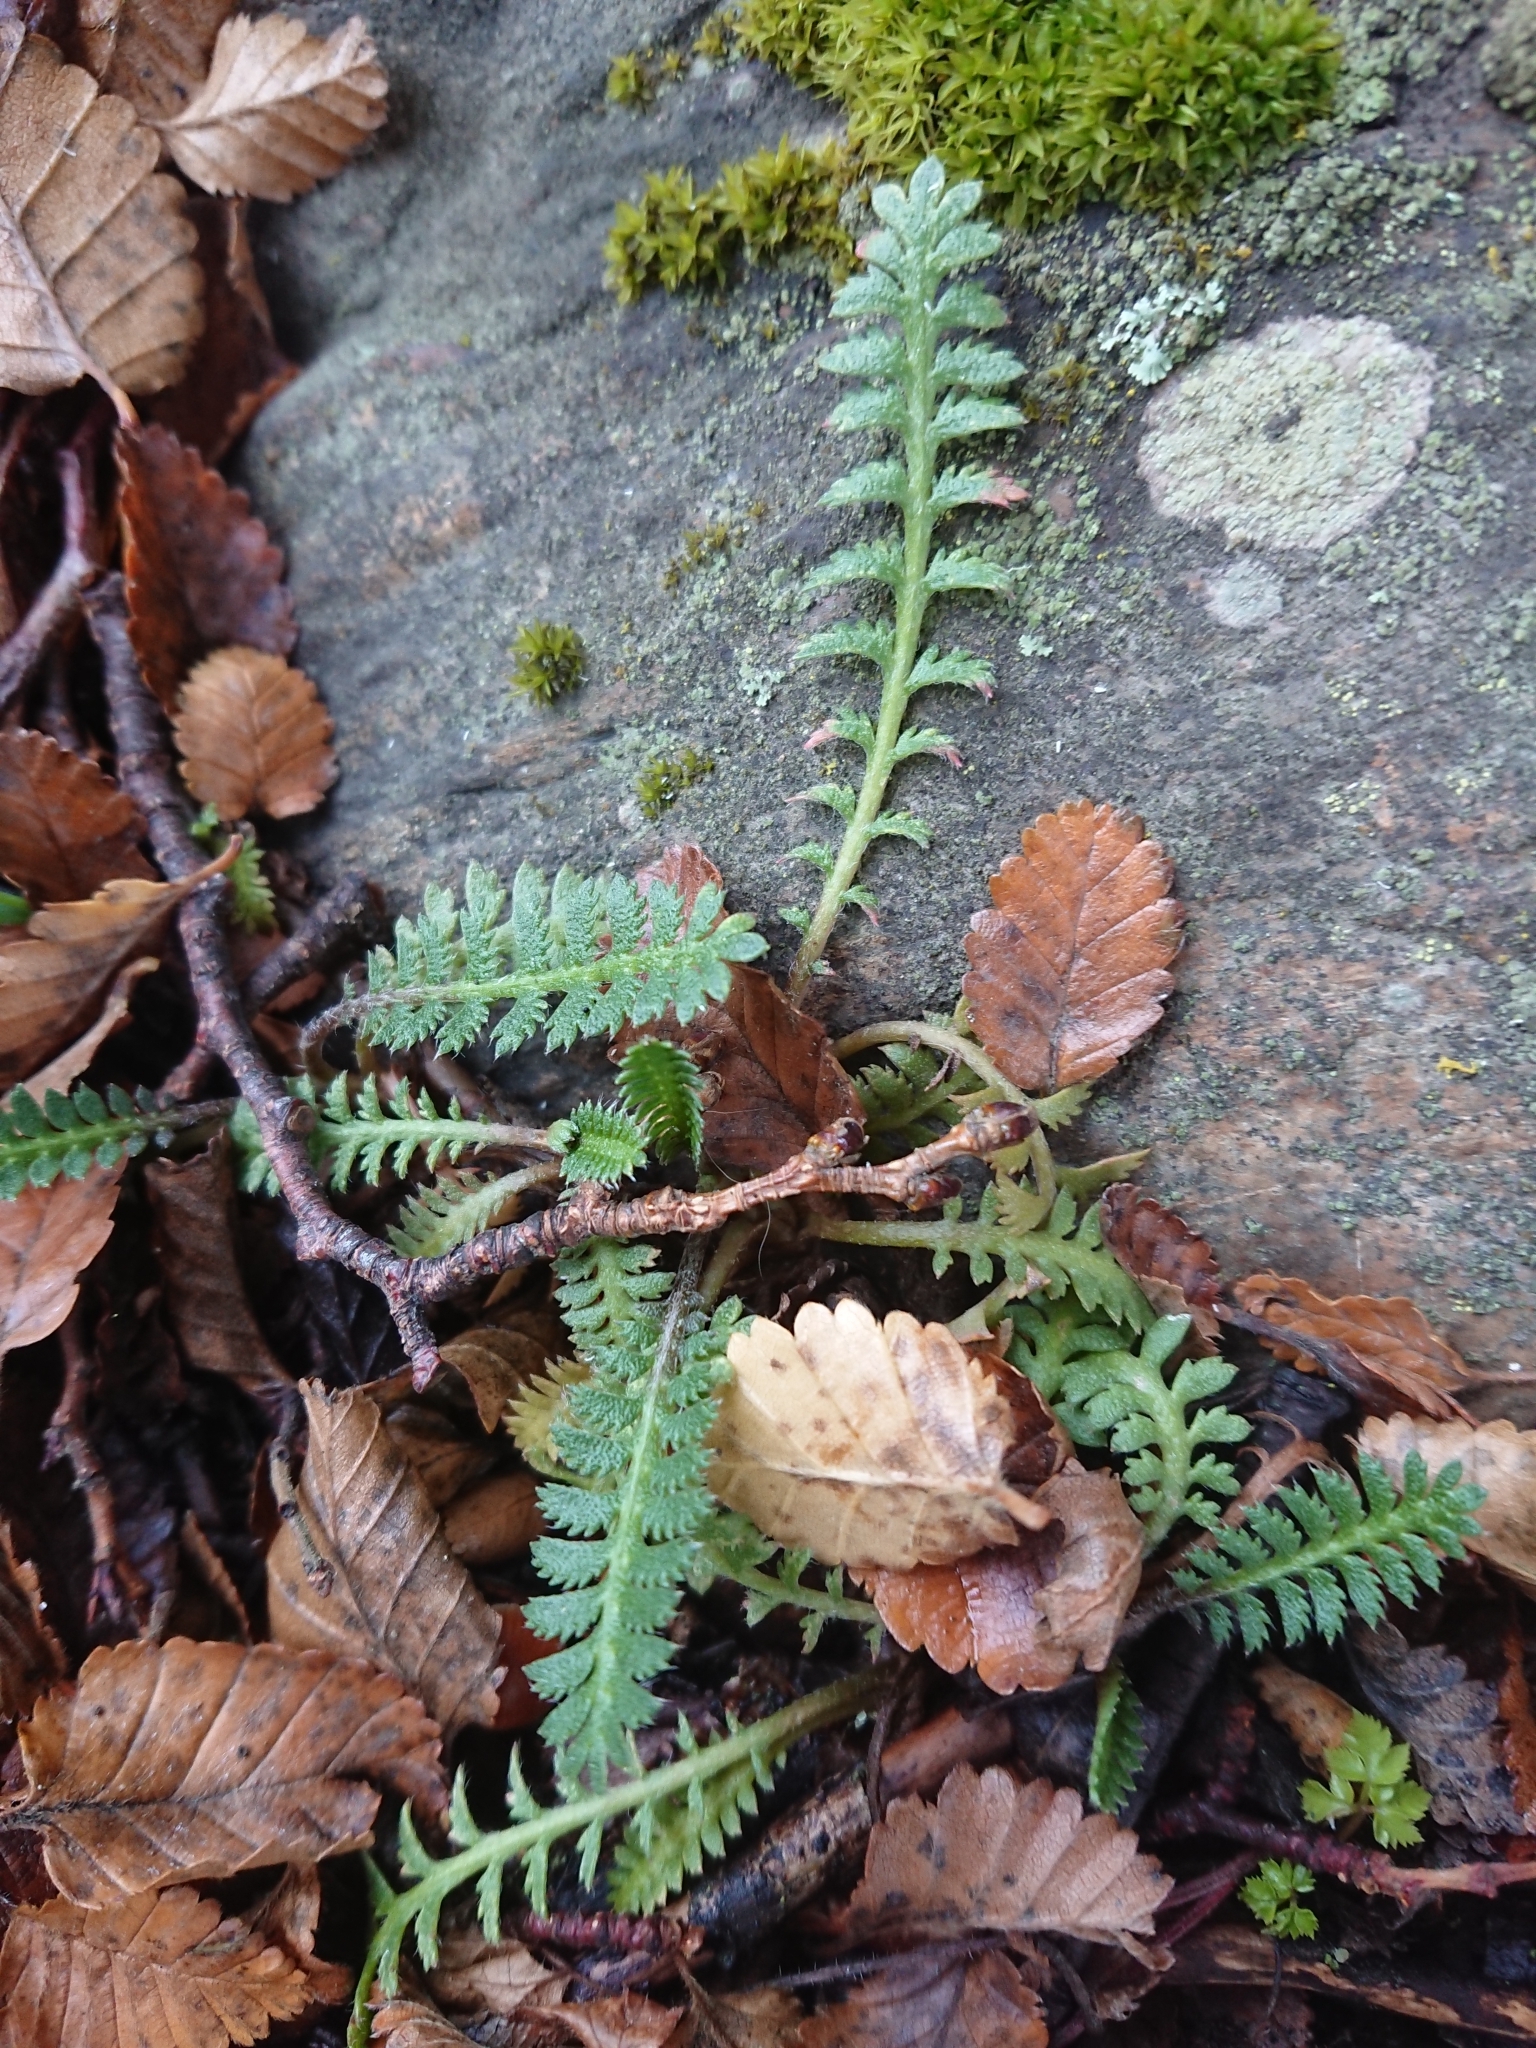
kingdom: Plantae
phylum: Tracheophyta
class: Magnoliopsida
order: Asterales
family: Asteraceae
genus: Leptinella
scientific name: Leptinella scariosa
